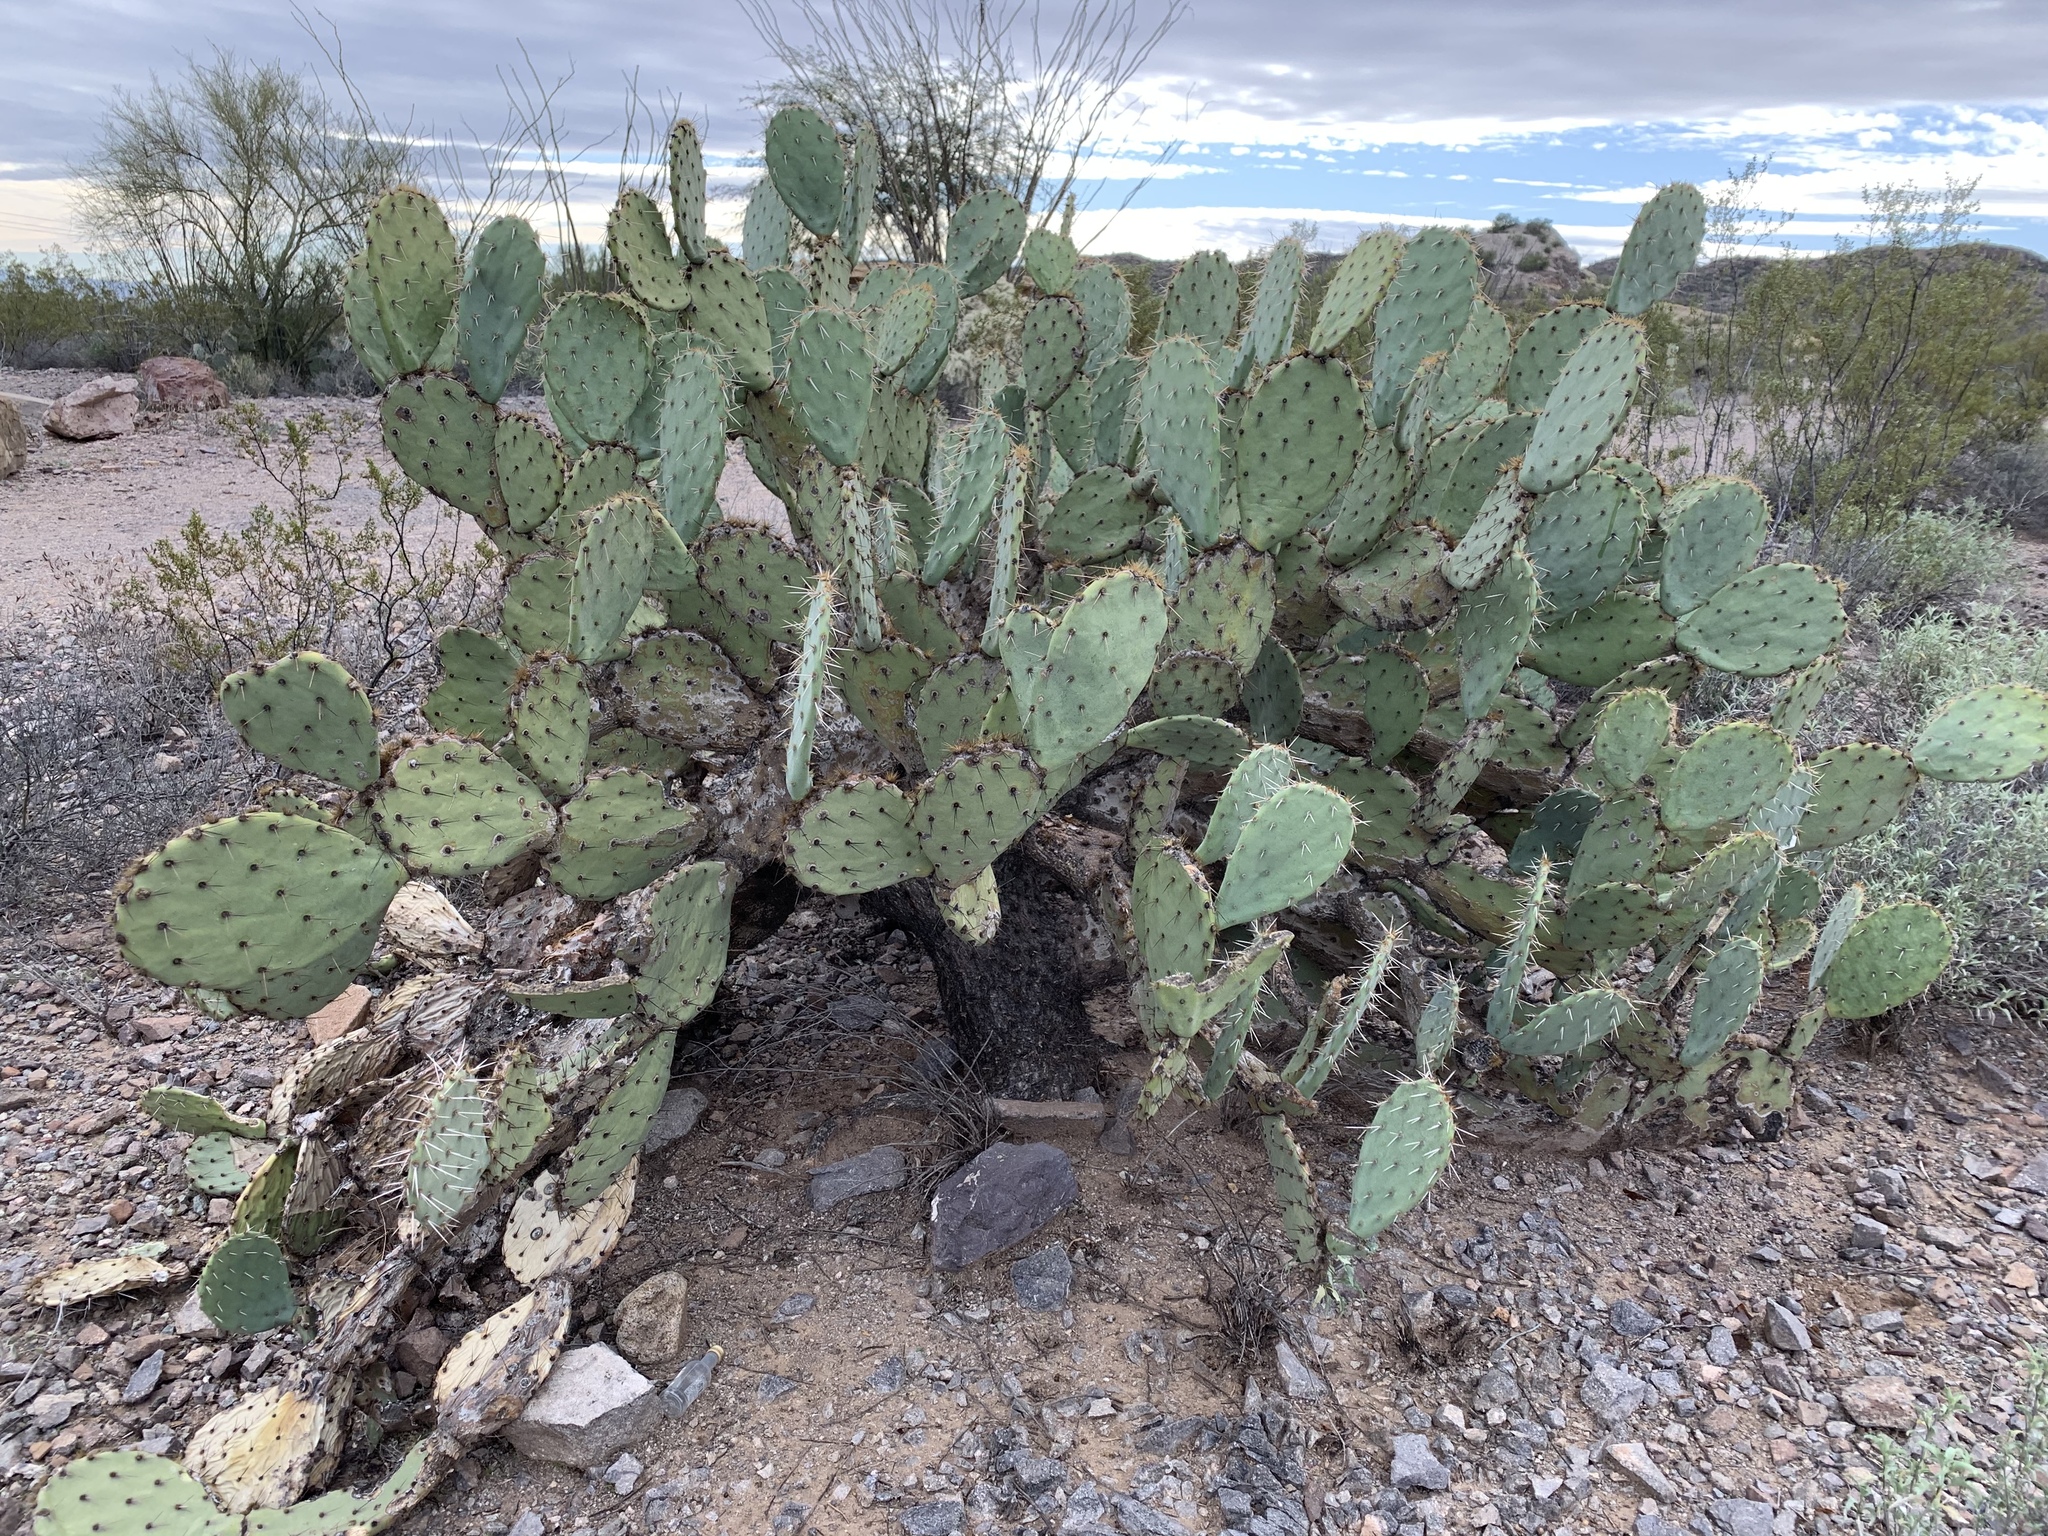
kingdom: Plantae
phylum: Tracheophyta
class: Magnoliopsida
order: Caryophyllales
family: Cactaceae
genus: Opuntia
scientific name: Opuntia engelmannii
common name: Cactus-apple
